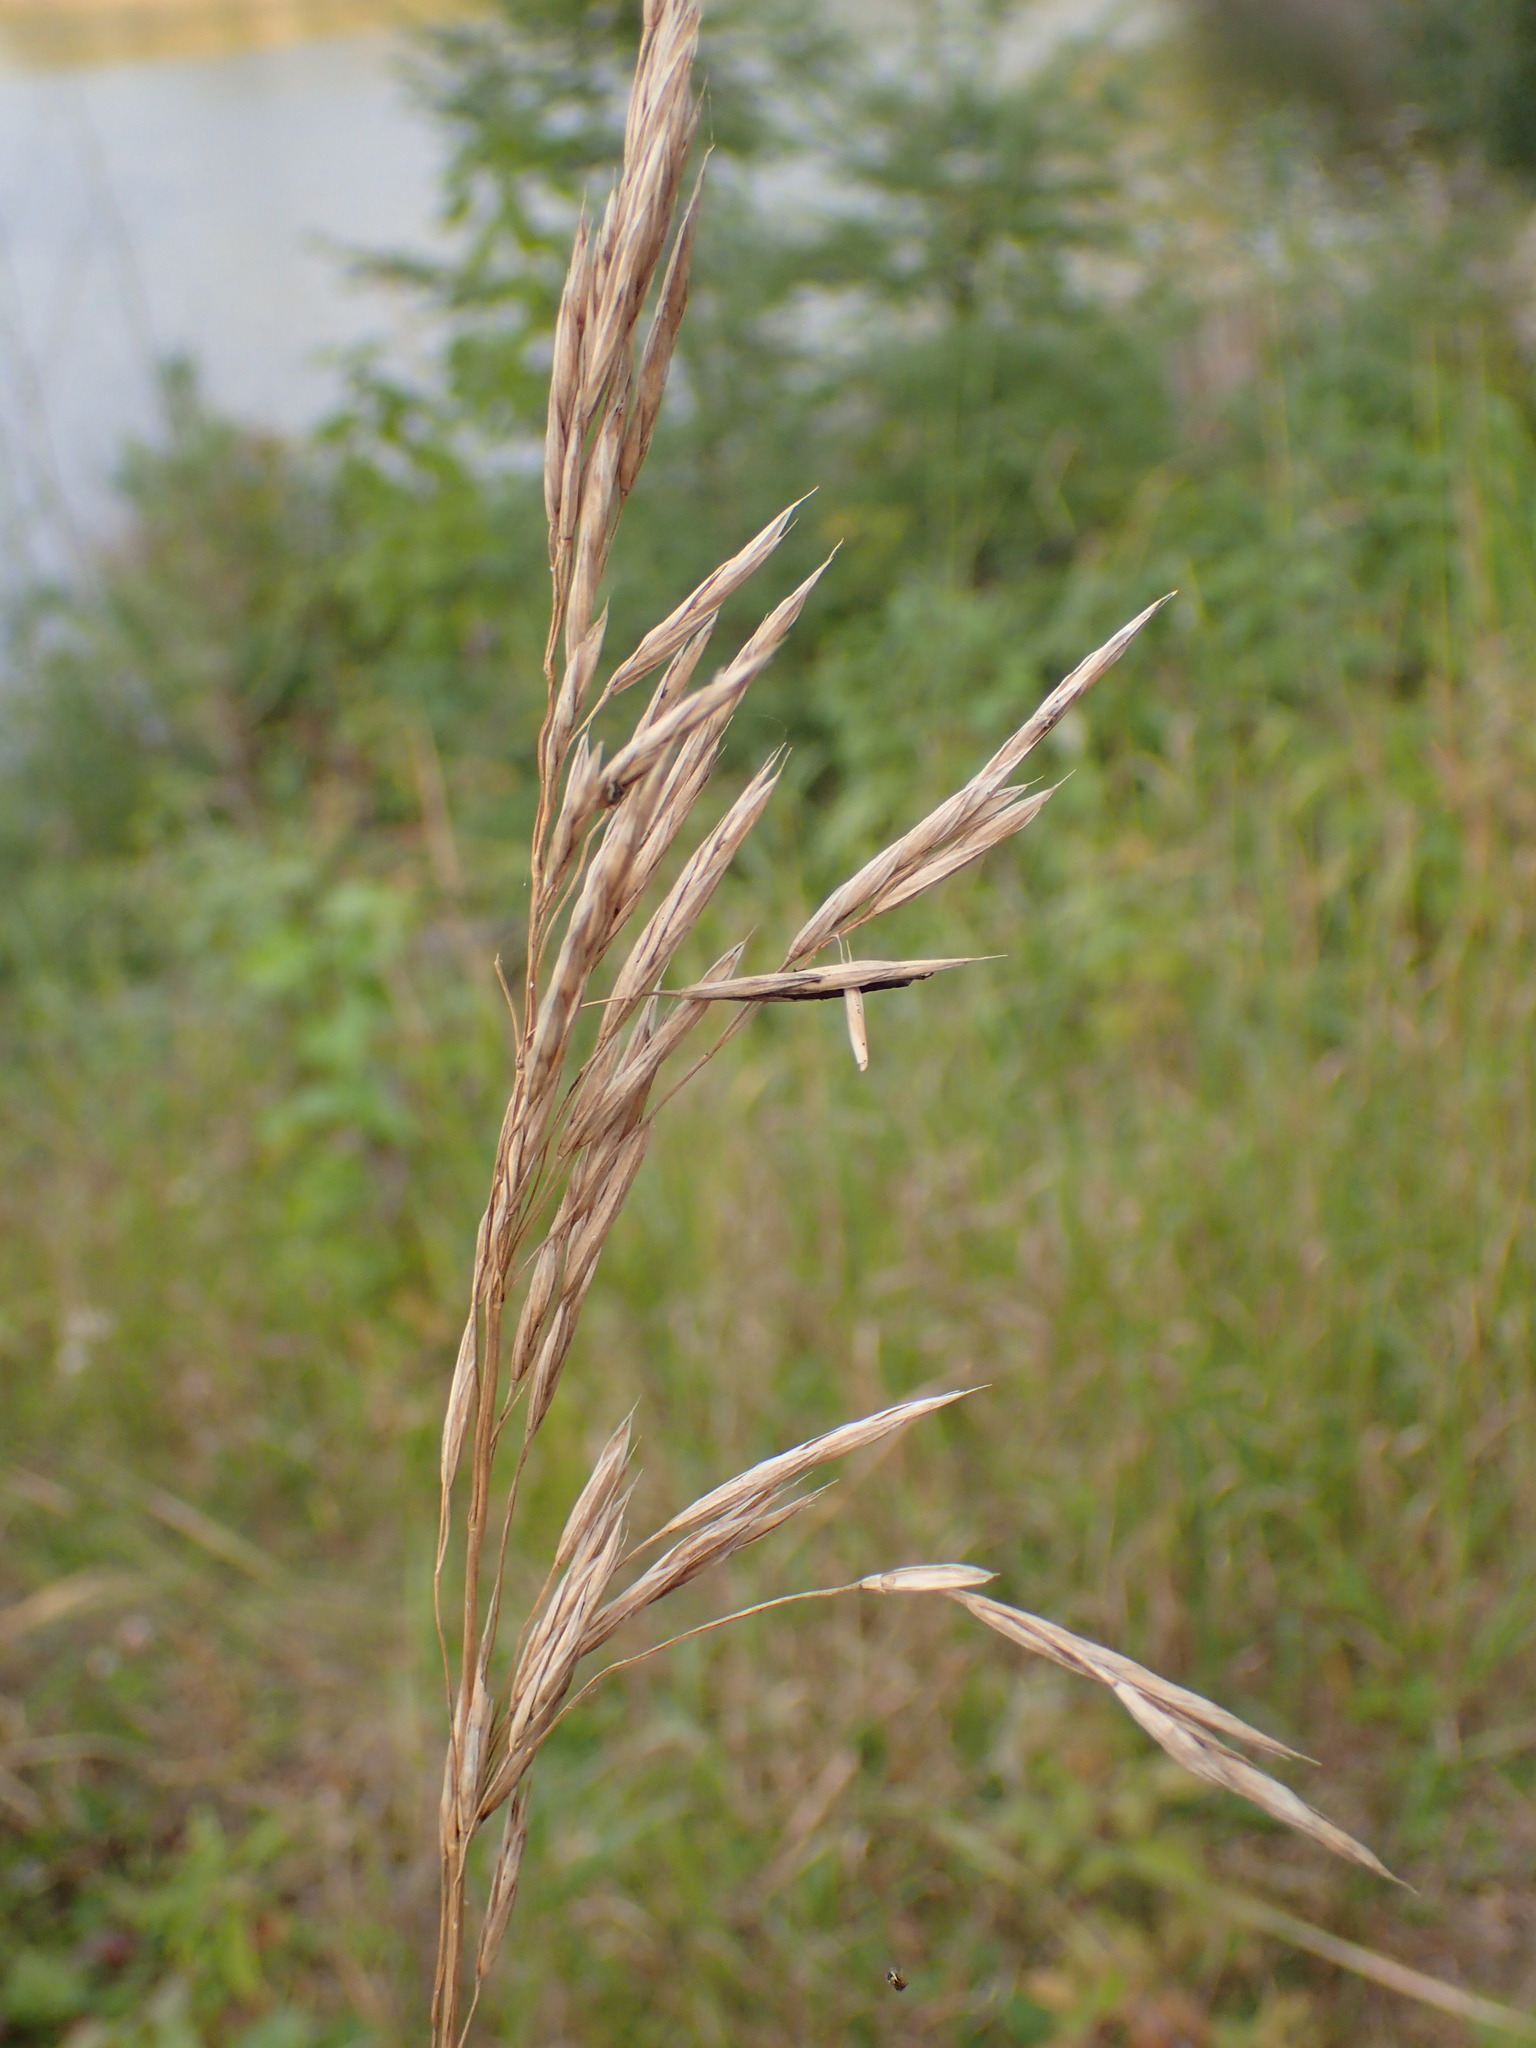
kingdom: Plantae
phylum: Tracheophyta
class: Liliopsida
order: Poales
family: Poaceae
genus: Bromus
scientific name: Bromus inermis
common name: Smooth brome
